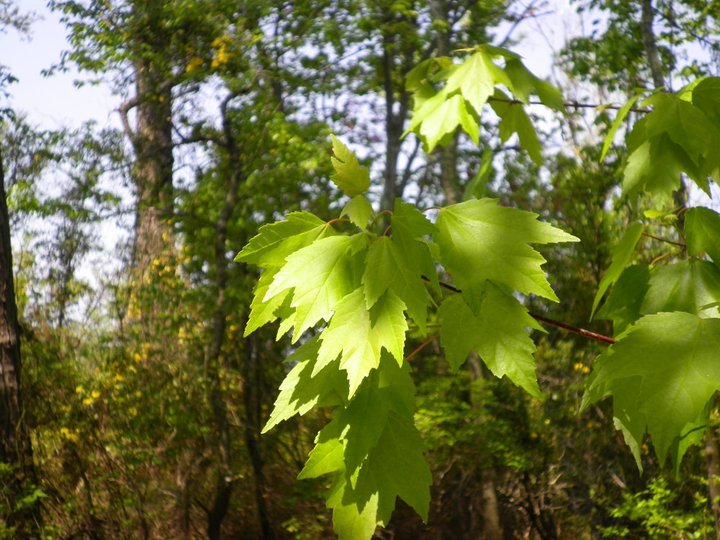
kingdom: Plantae
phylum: Tracheophyta
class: Magnoliopsida
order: Sapindales
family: Sapindaceae
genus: Acer
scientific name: Acer rubrum
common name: Red maple
